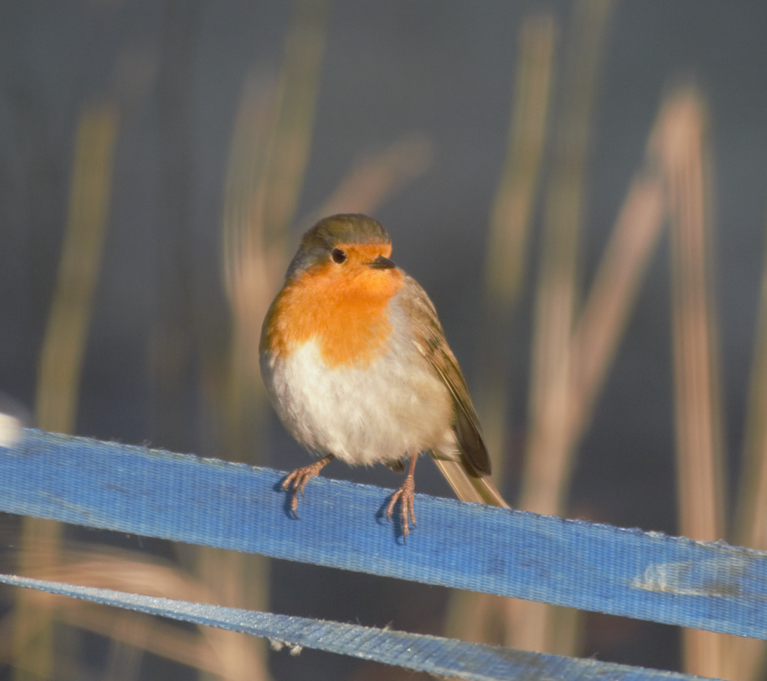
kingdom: Animalia
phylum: Chordata
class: Aves
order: Passeriformes
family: Muscicapidae
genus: Erithacus
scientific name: Erithacus rubecula
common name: European robin
